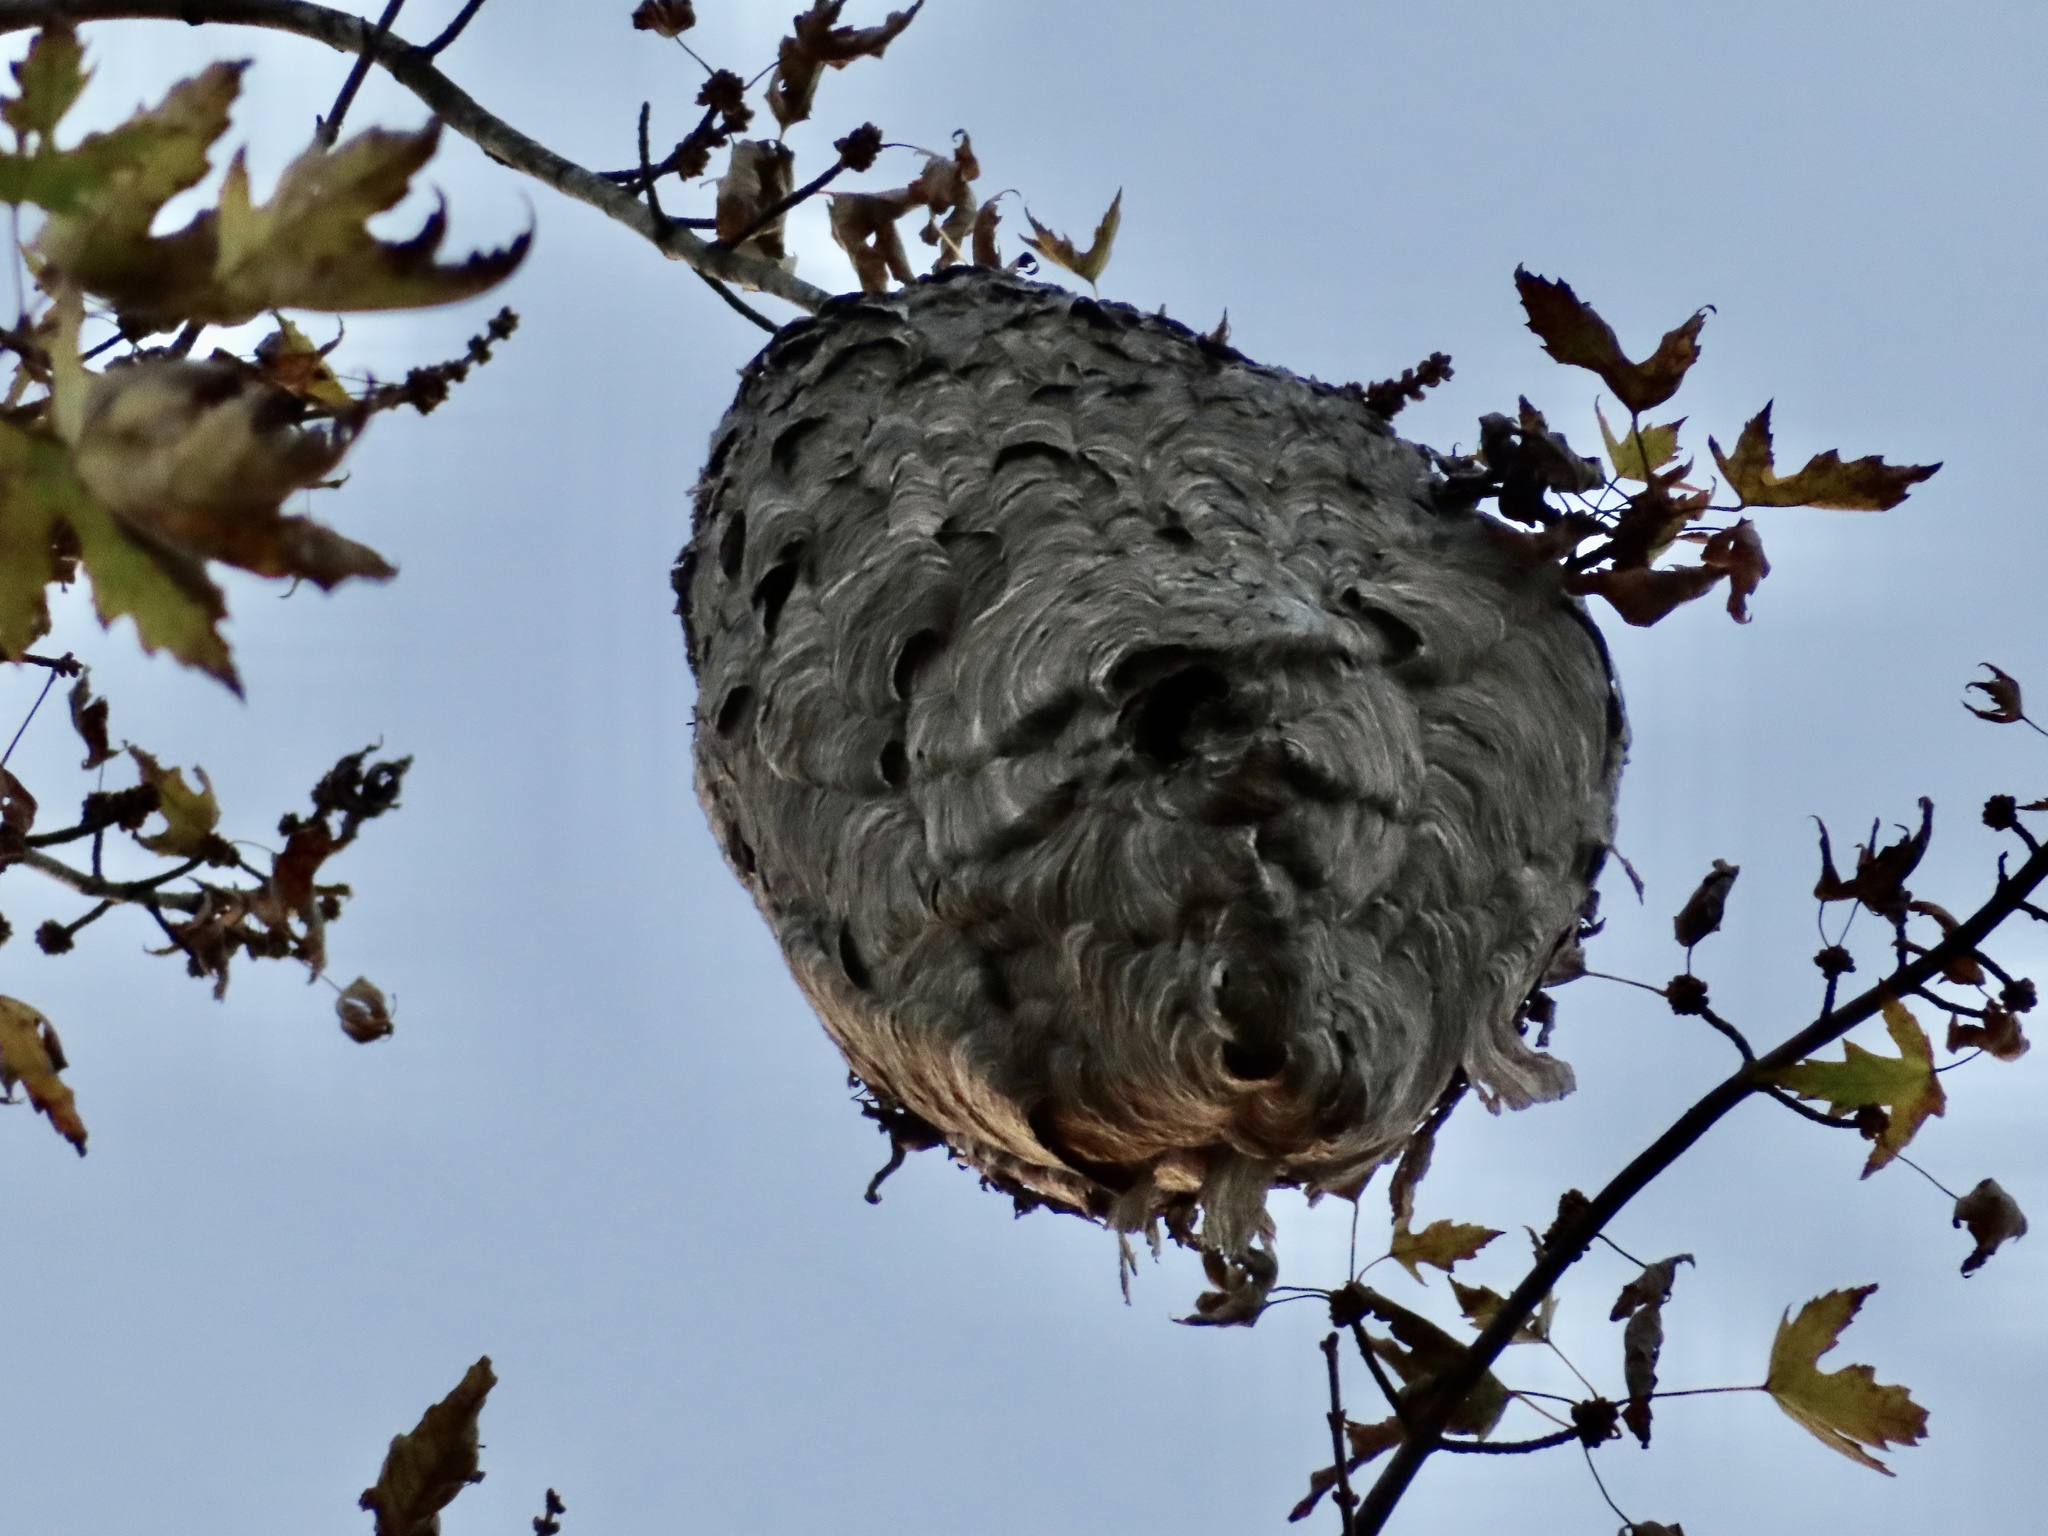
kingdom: Animalia
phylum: Arthropoda
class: Insecta
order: Hymenoptera
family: Vespidae
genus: Dolichovespula
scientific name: Dolichovespula maculata
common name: Bald-faced hornet
